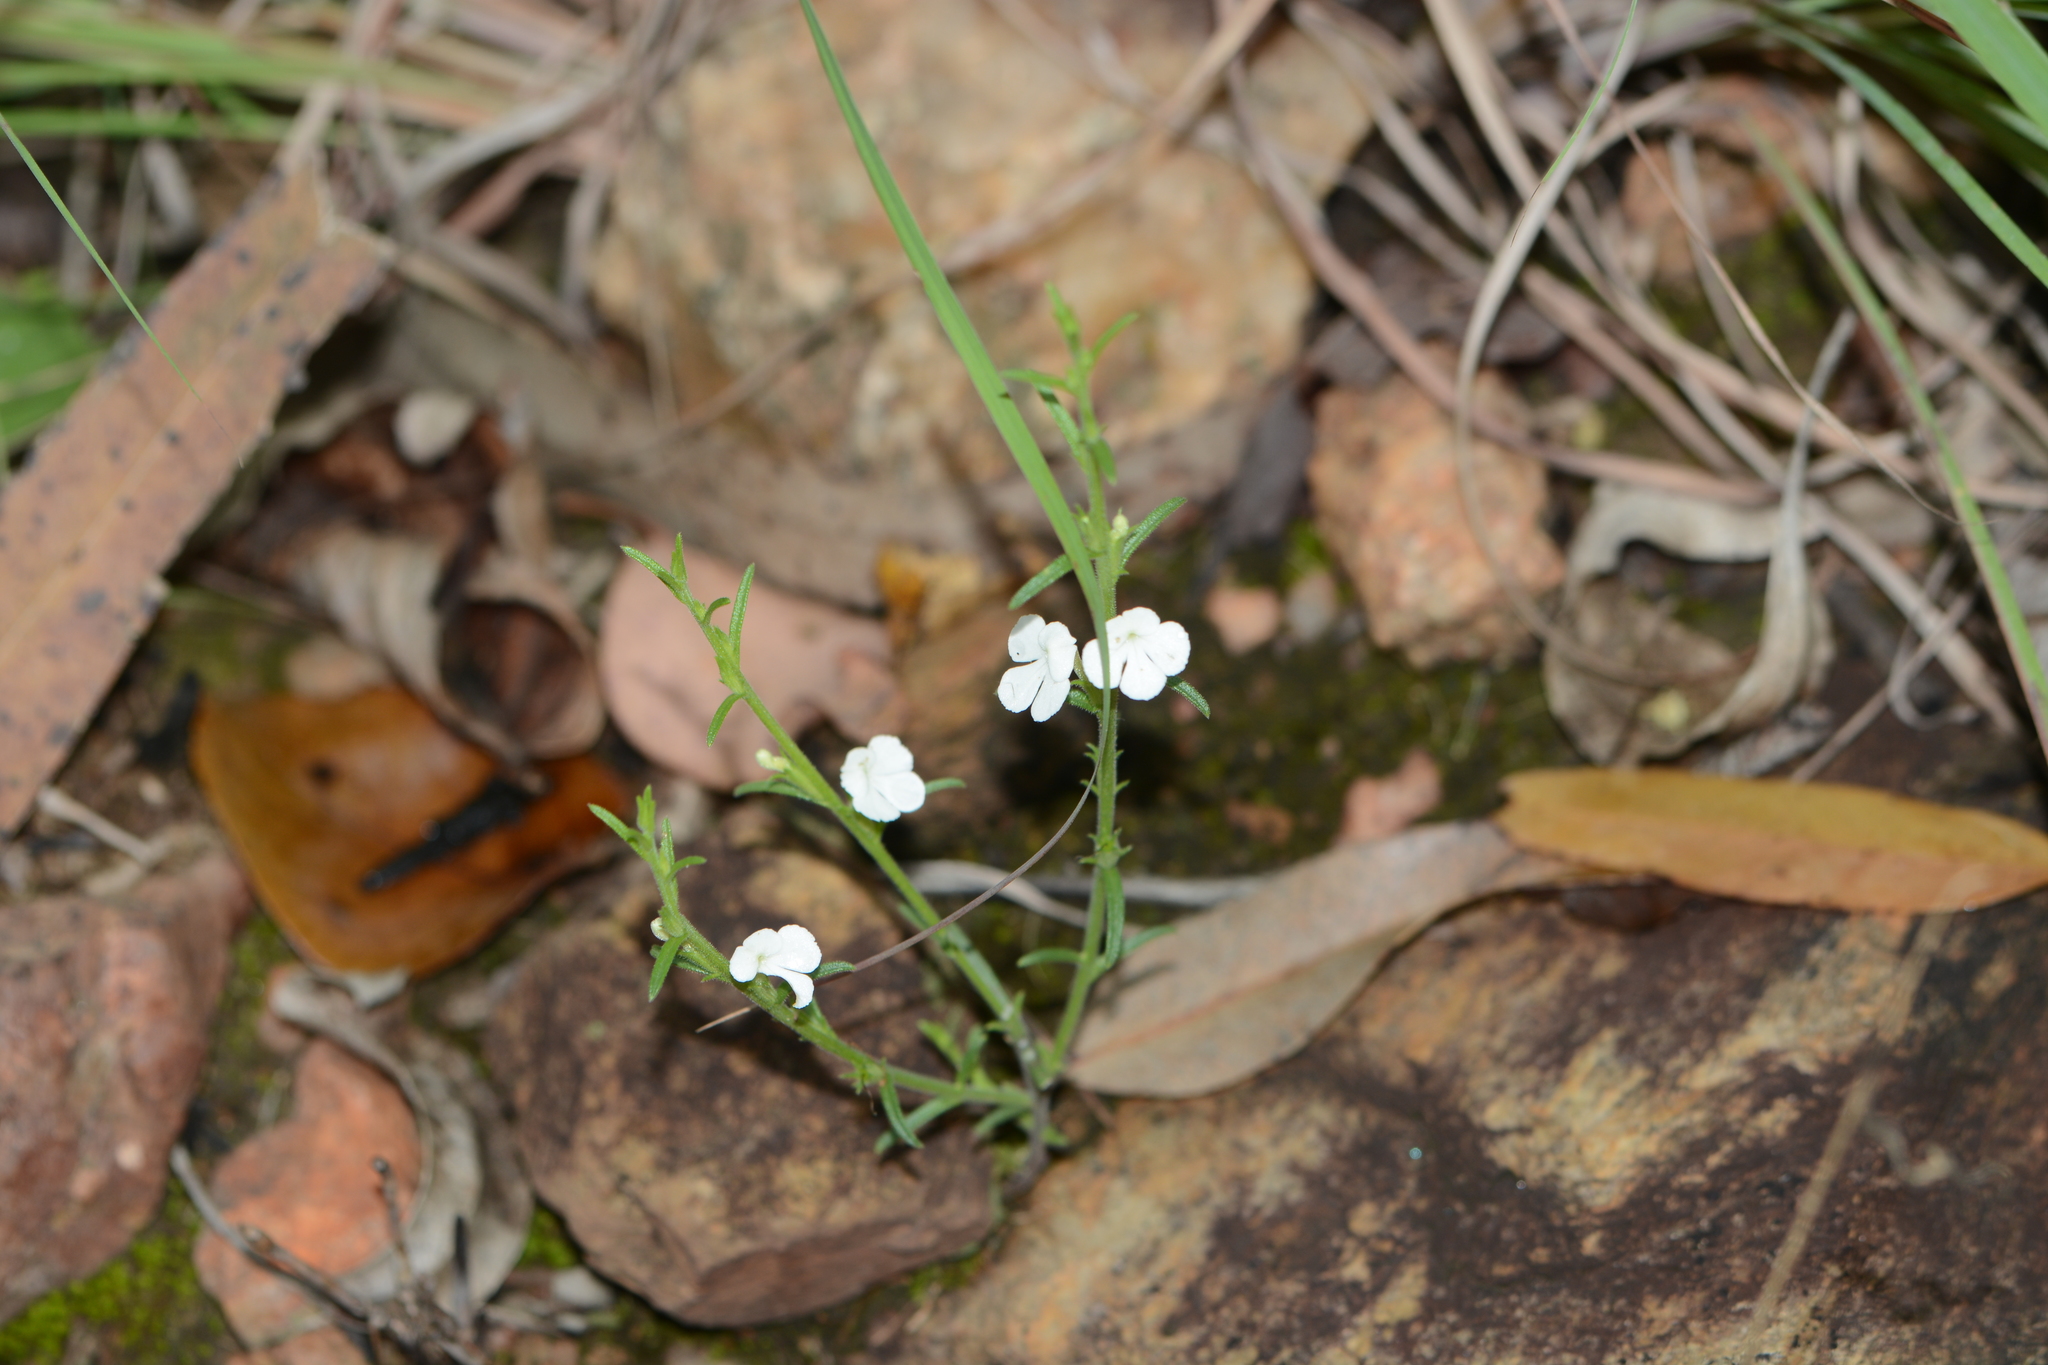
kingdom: Plantae
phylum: Tracheophyta
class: Magnoliopsida
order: Lamiales
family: Orobanchaceae
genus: Striga
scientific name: Striga angustifolia
